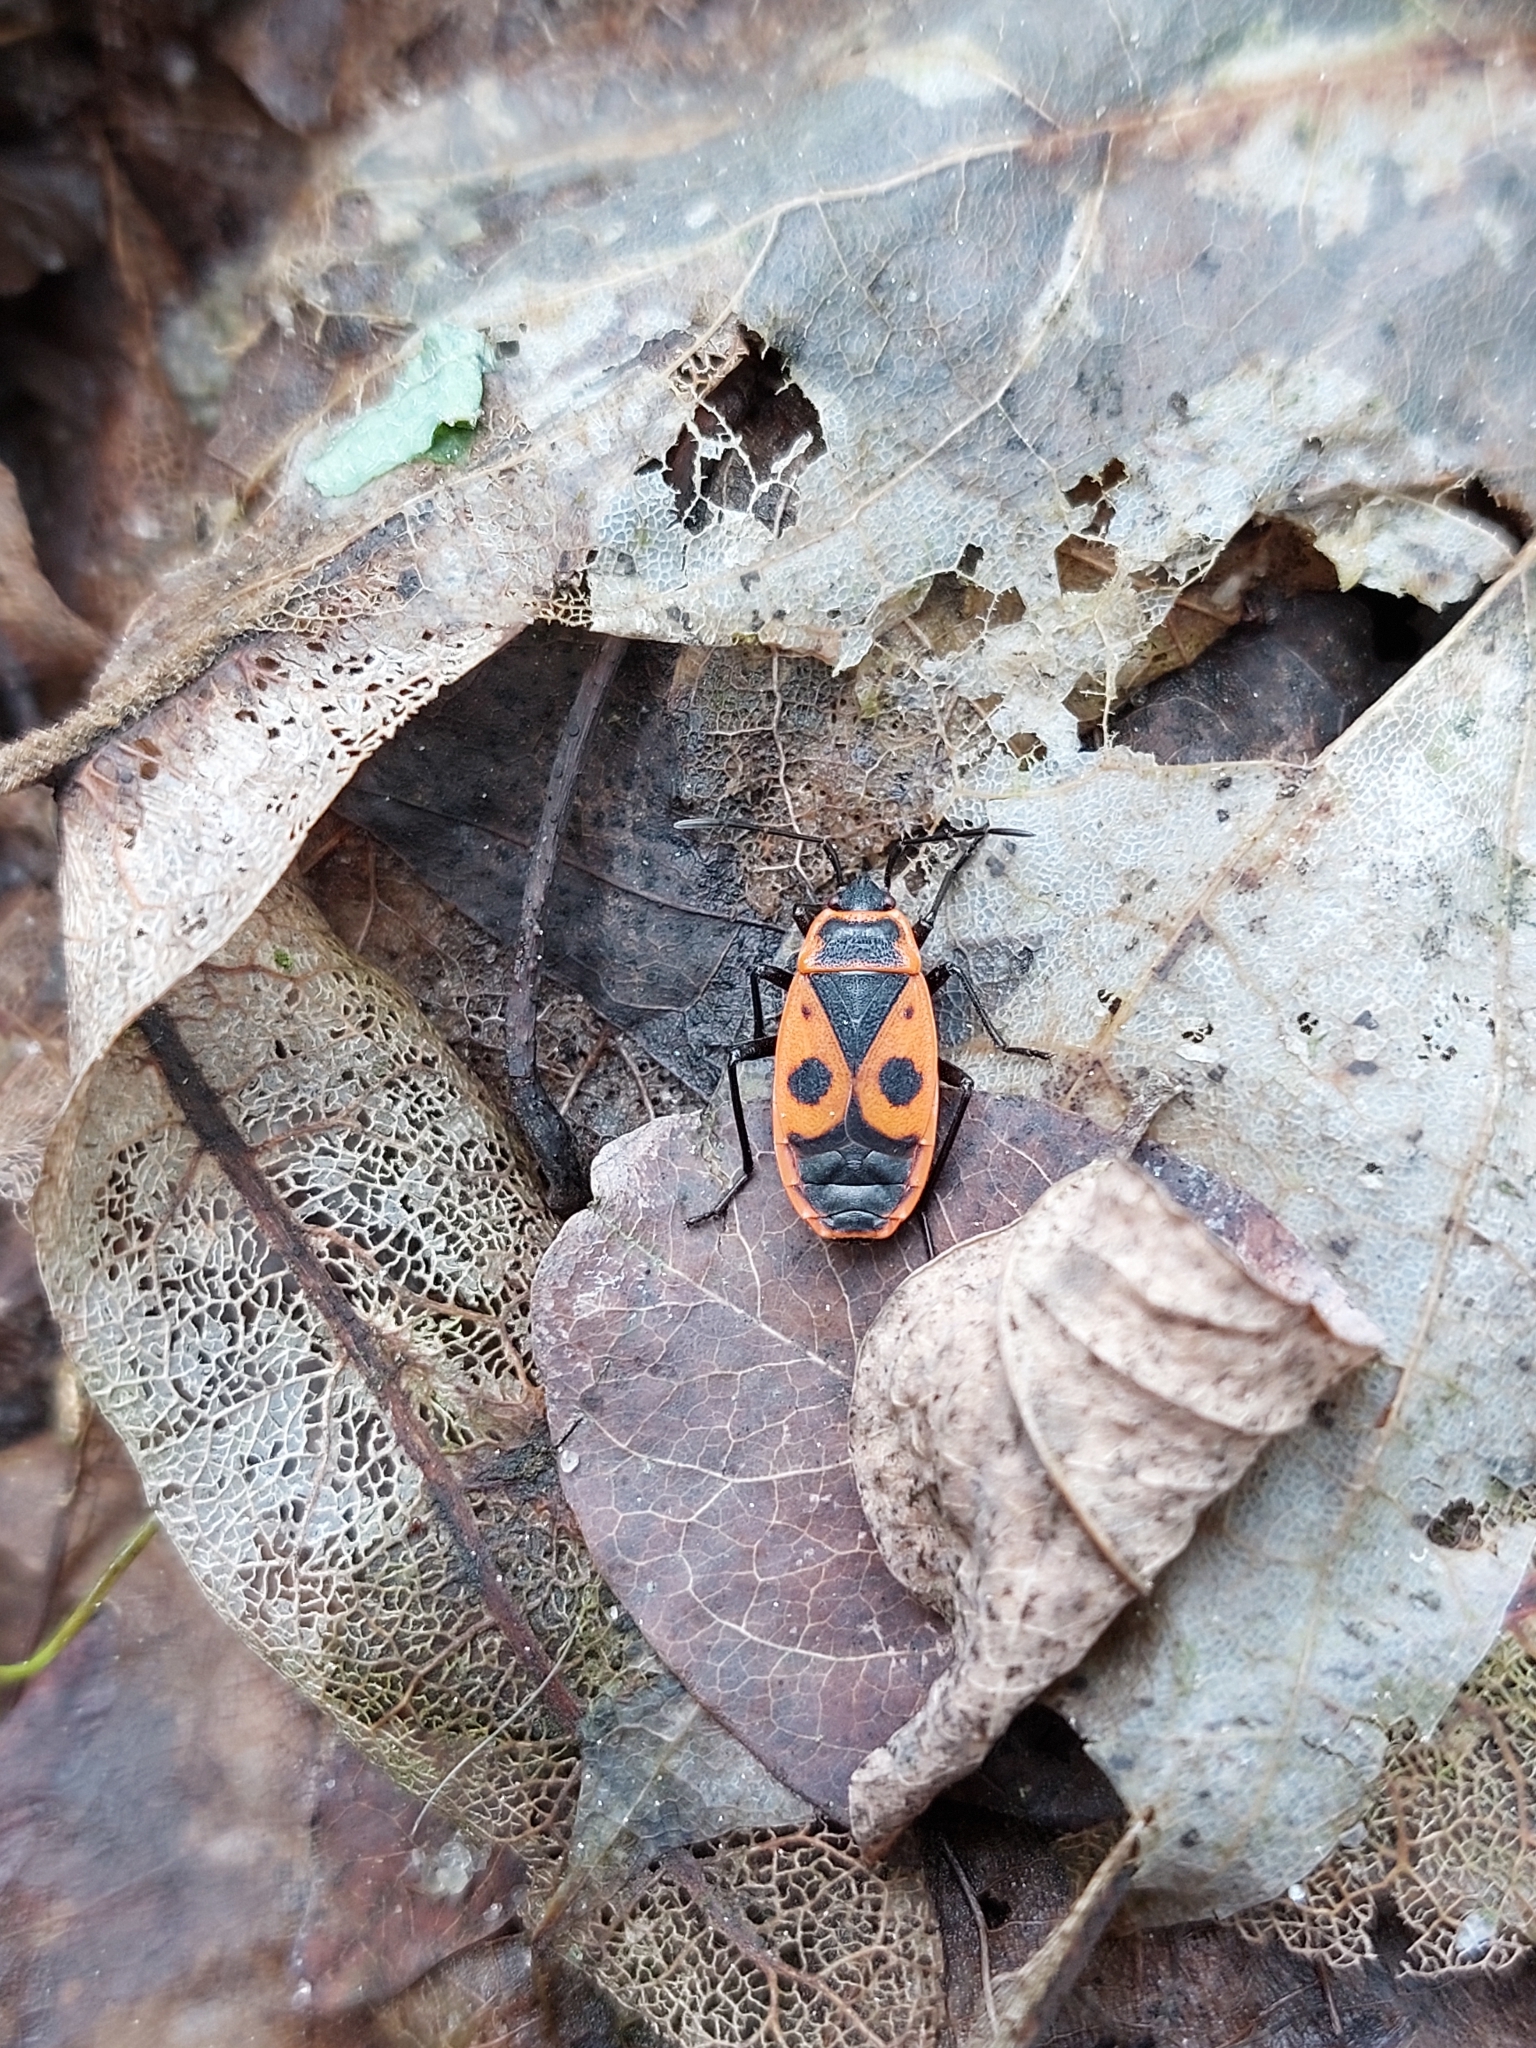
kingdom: Animalia
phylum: Arthropoda
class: Insecta
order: Hemiptera
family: Pyrrhocoridae
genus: Pyrrhocoris
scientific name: Pyrrhocoris apterus
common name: Firebug
